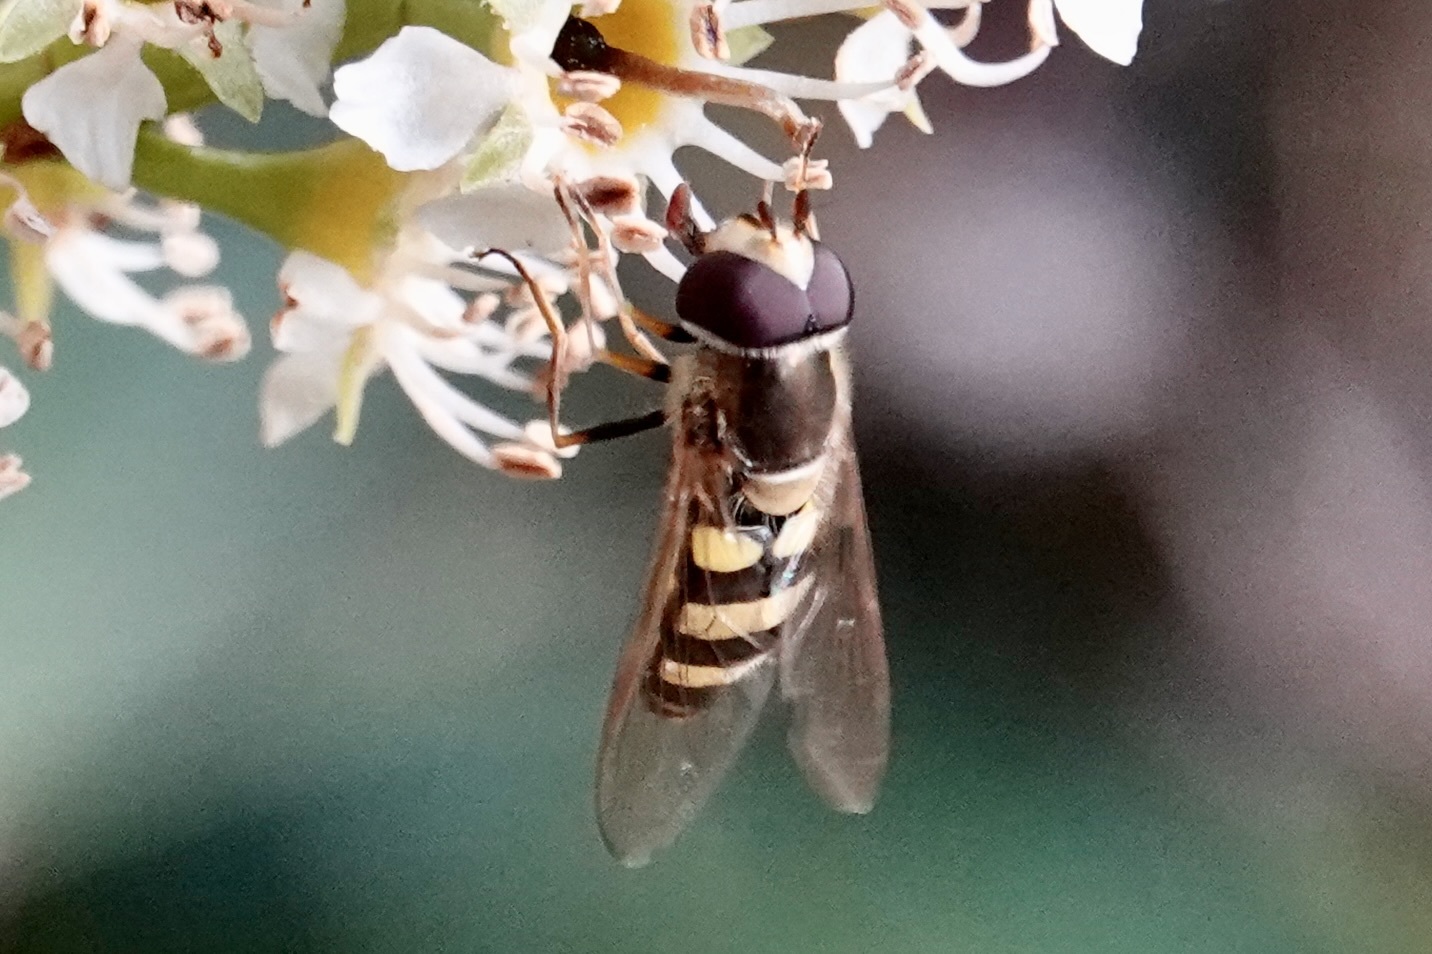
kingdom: Animalia
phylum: Arthropoda
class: Insecta
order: Diptera
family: Syrphidae
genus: Eupeodes
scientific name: Eupeodes
